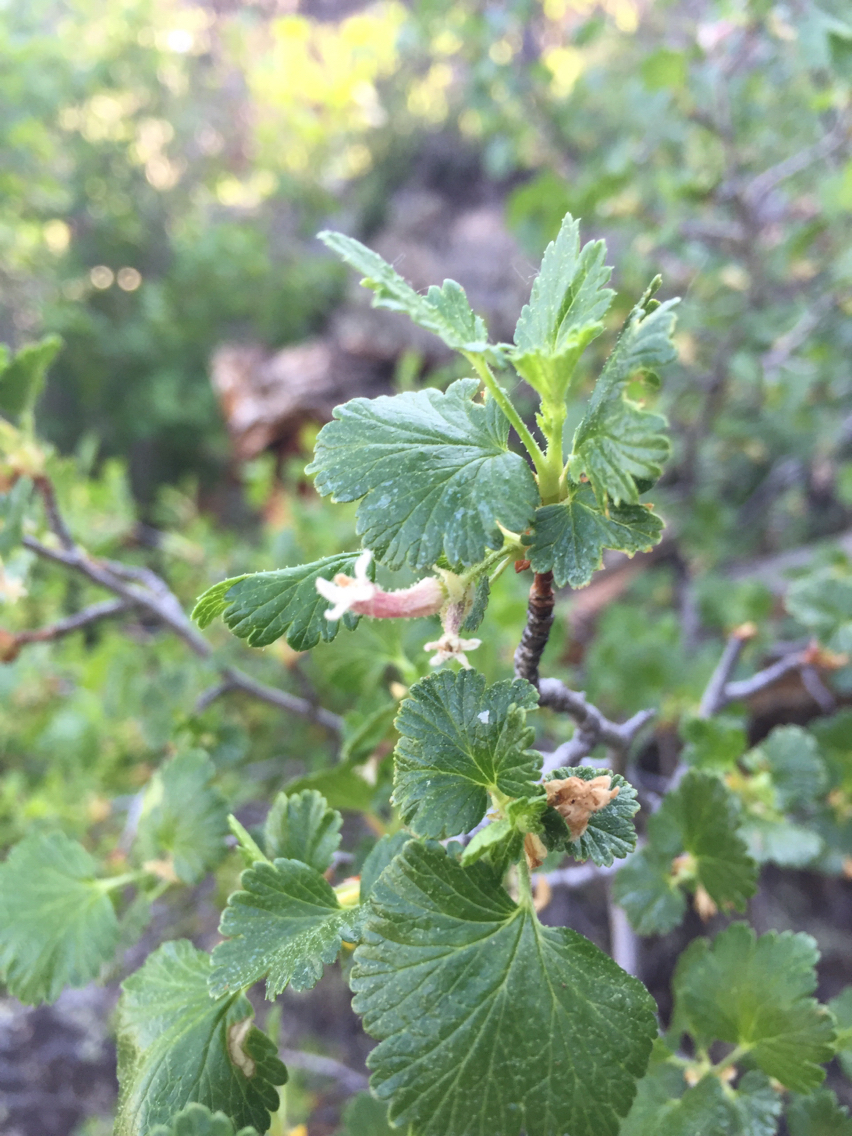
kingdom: Plantae
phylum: Tracheophyta
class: Magnoliopsida
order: Saxifragales
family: Grossulariaceae
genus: Ribes
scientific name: Ribes cereum
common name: Wax currant
